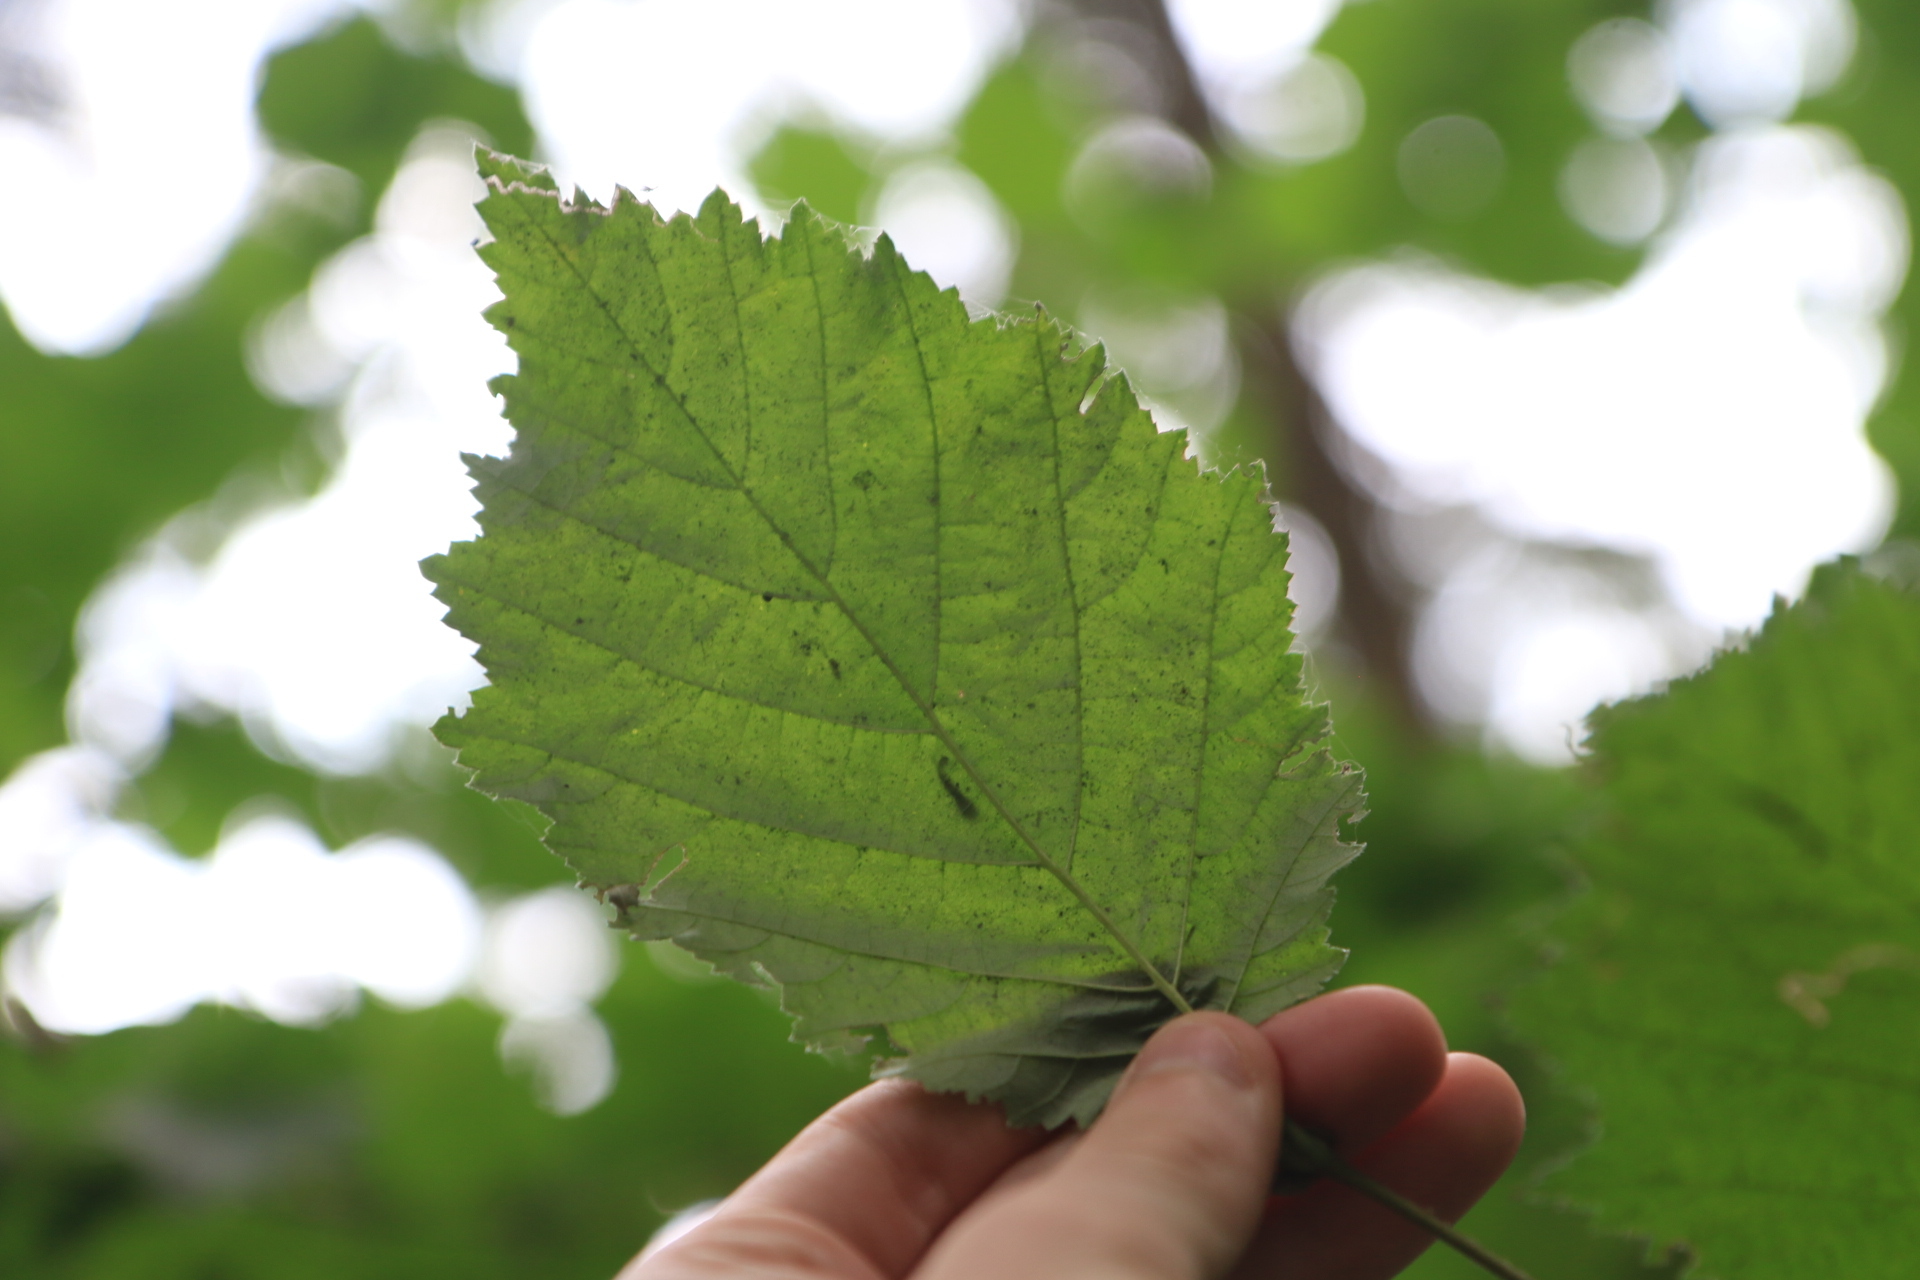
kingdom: Plantae
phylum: Tracheophyta
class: Magnoliopsida
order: Fagales
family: Betulaceae
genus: Corylus
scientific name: Corylus cornuta
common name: Beaked hazel
